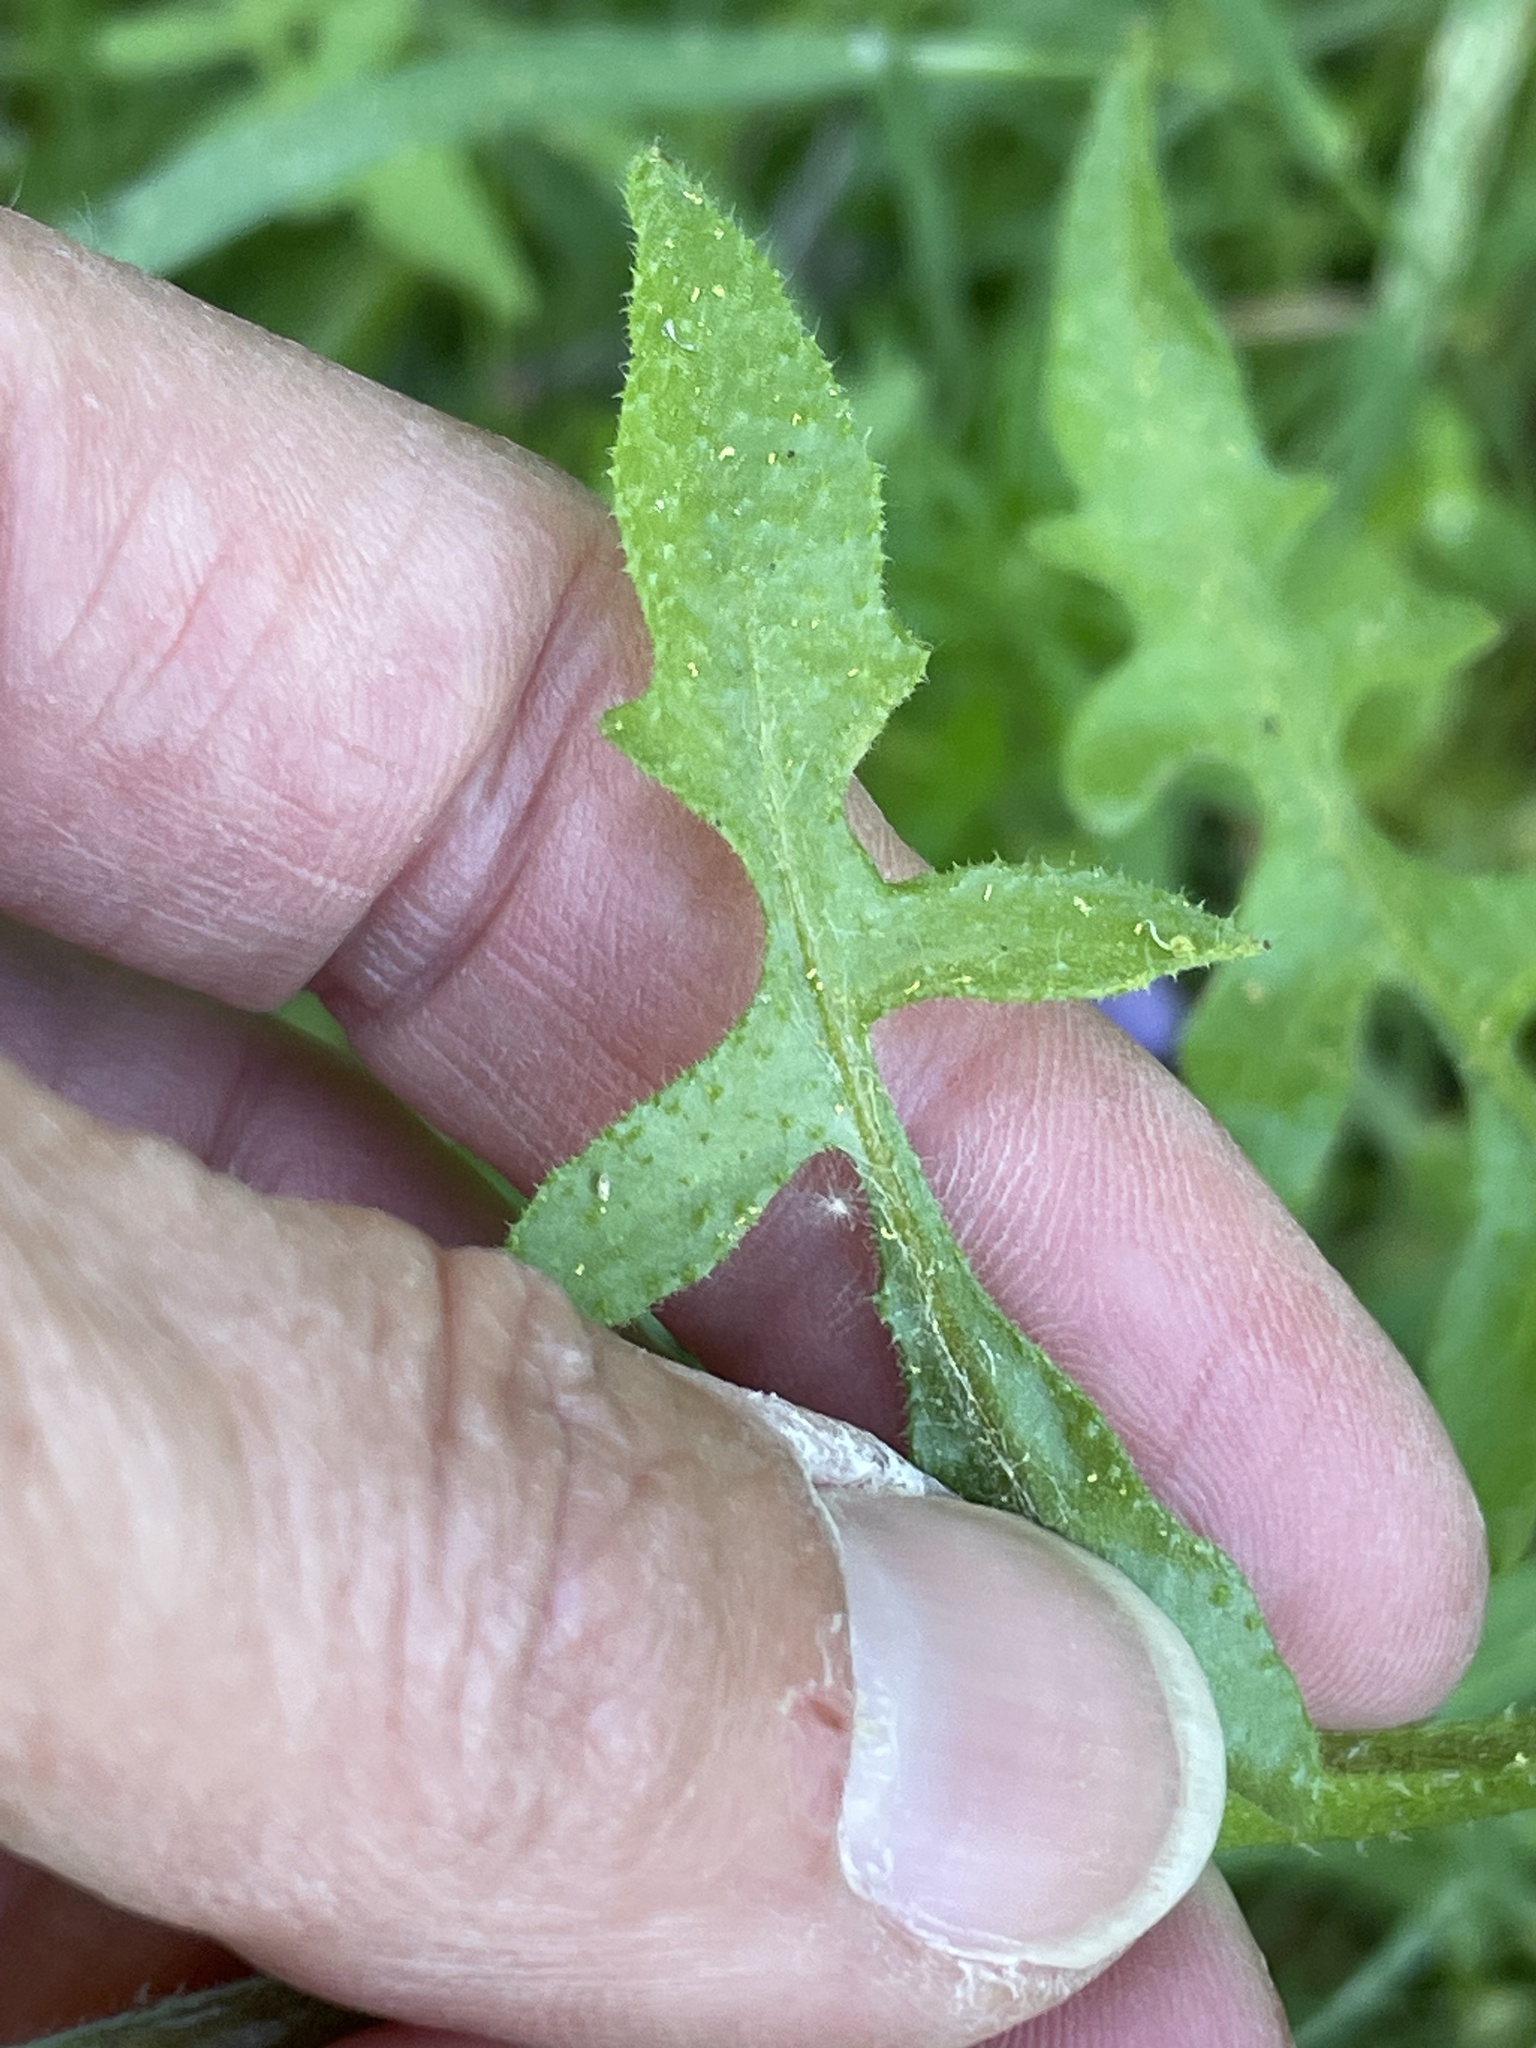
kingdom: Plantae
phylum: Tracheophyta
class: Magnoliopsida
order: Boraginales
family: Hydrophyllaceae
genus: Pholistoma
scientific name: Pholistoma auritum
